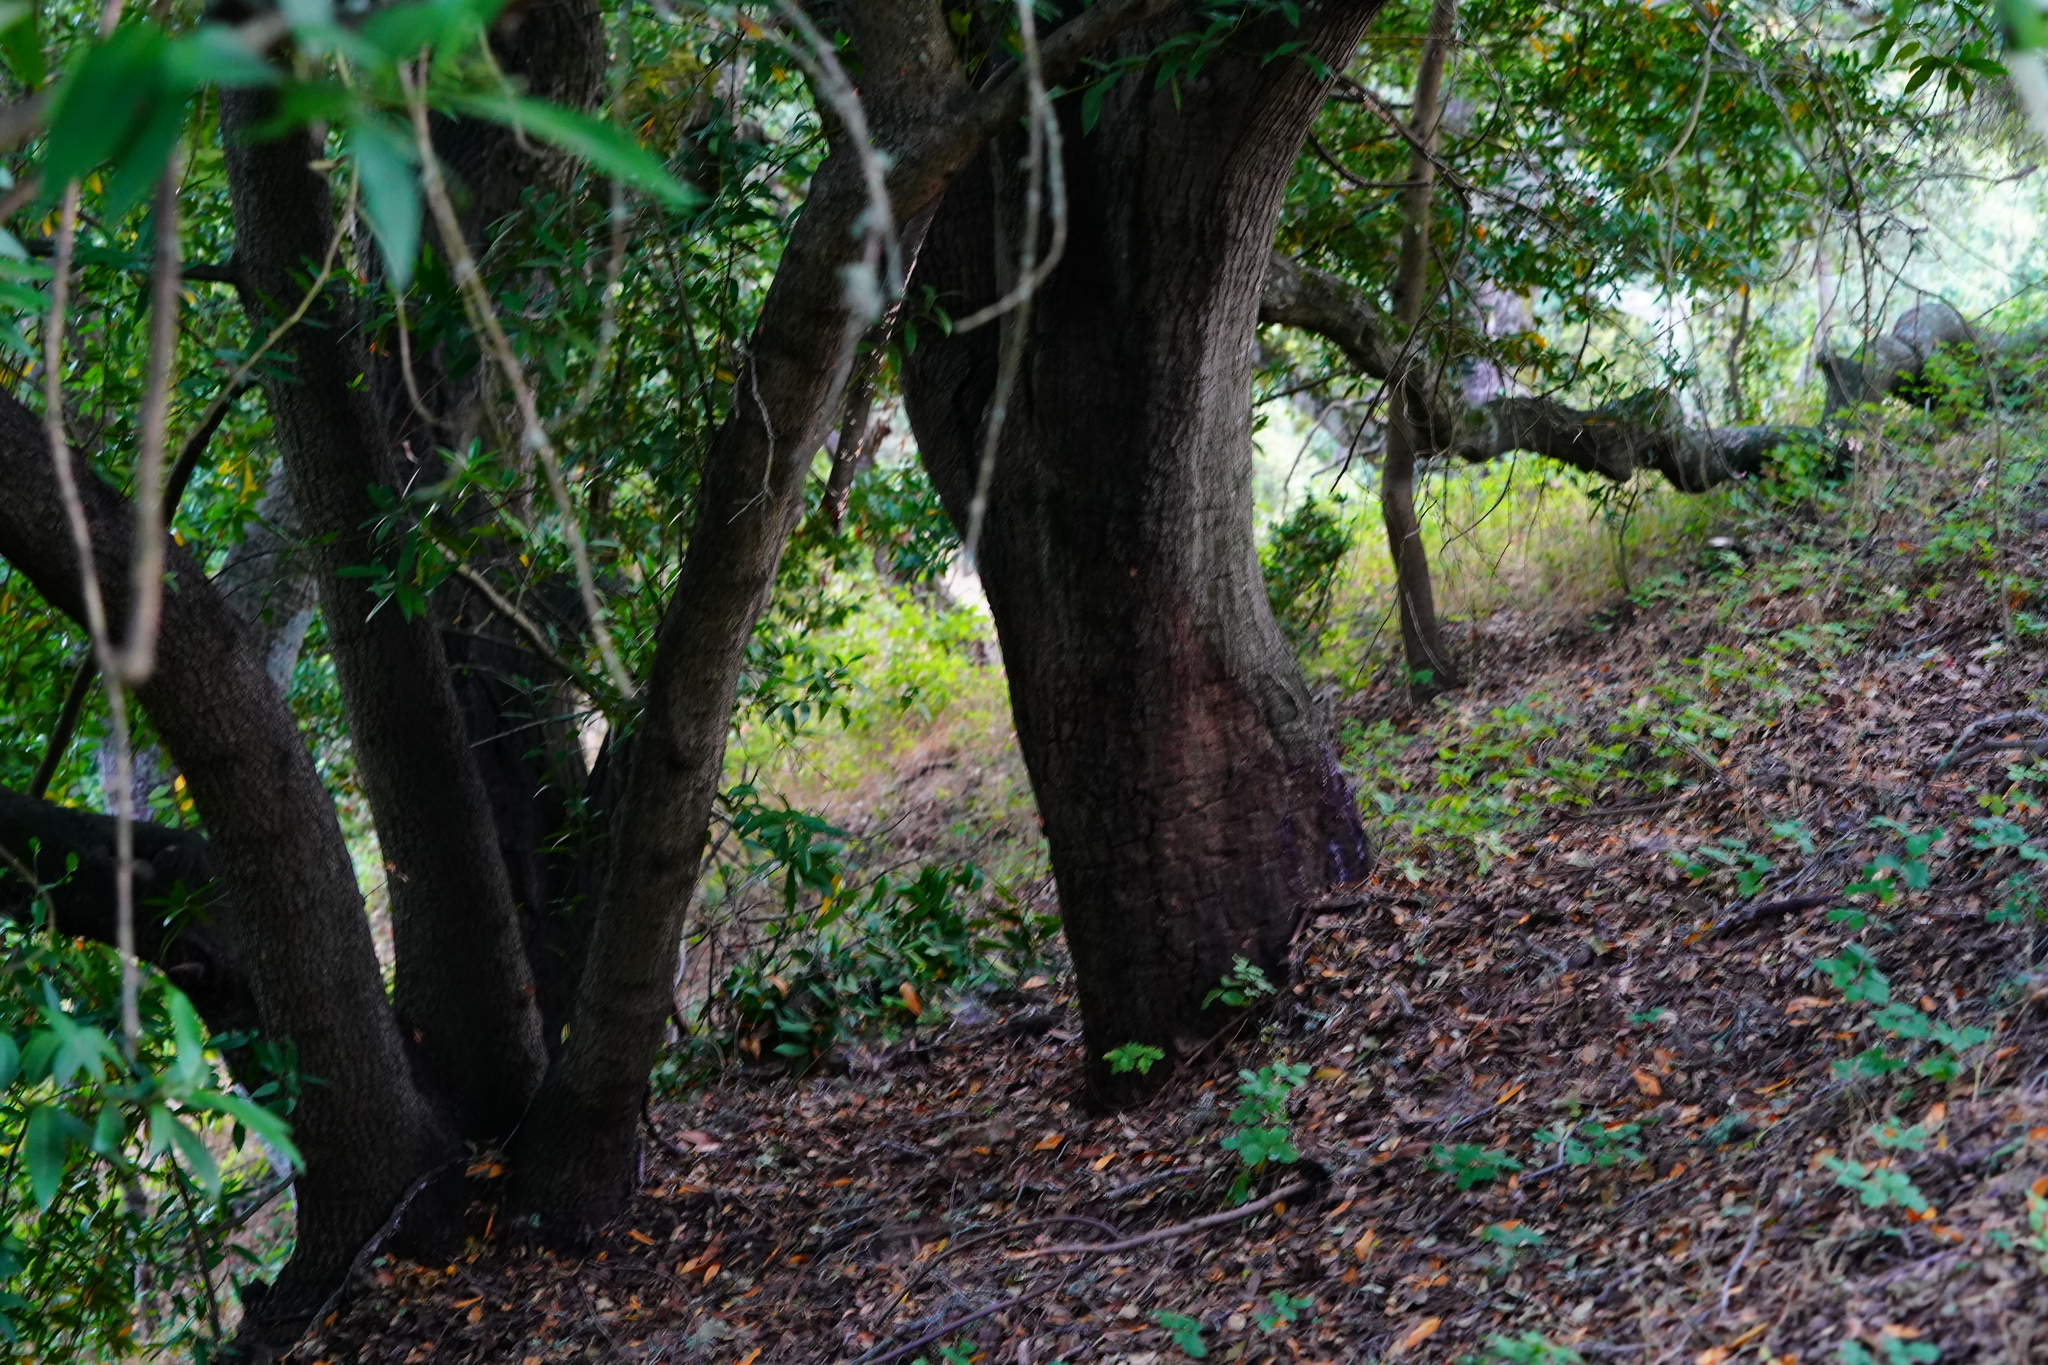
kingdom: Chromista
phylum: Oomycota
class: Peronosporea
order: Peronosporales
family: Peronosporaceae
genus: Phytophthora
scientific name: Phytophthora ramorum
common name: Sudden oak death
